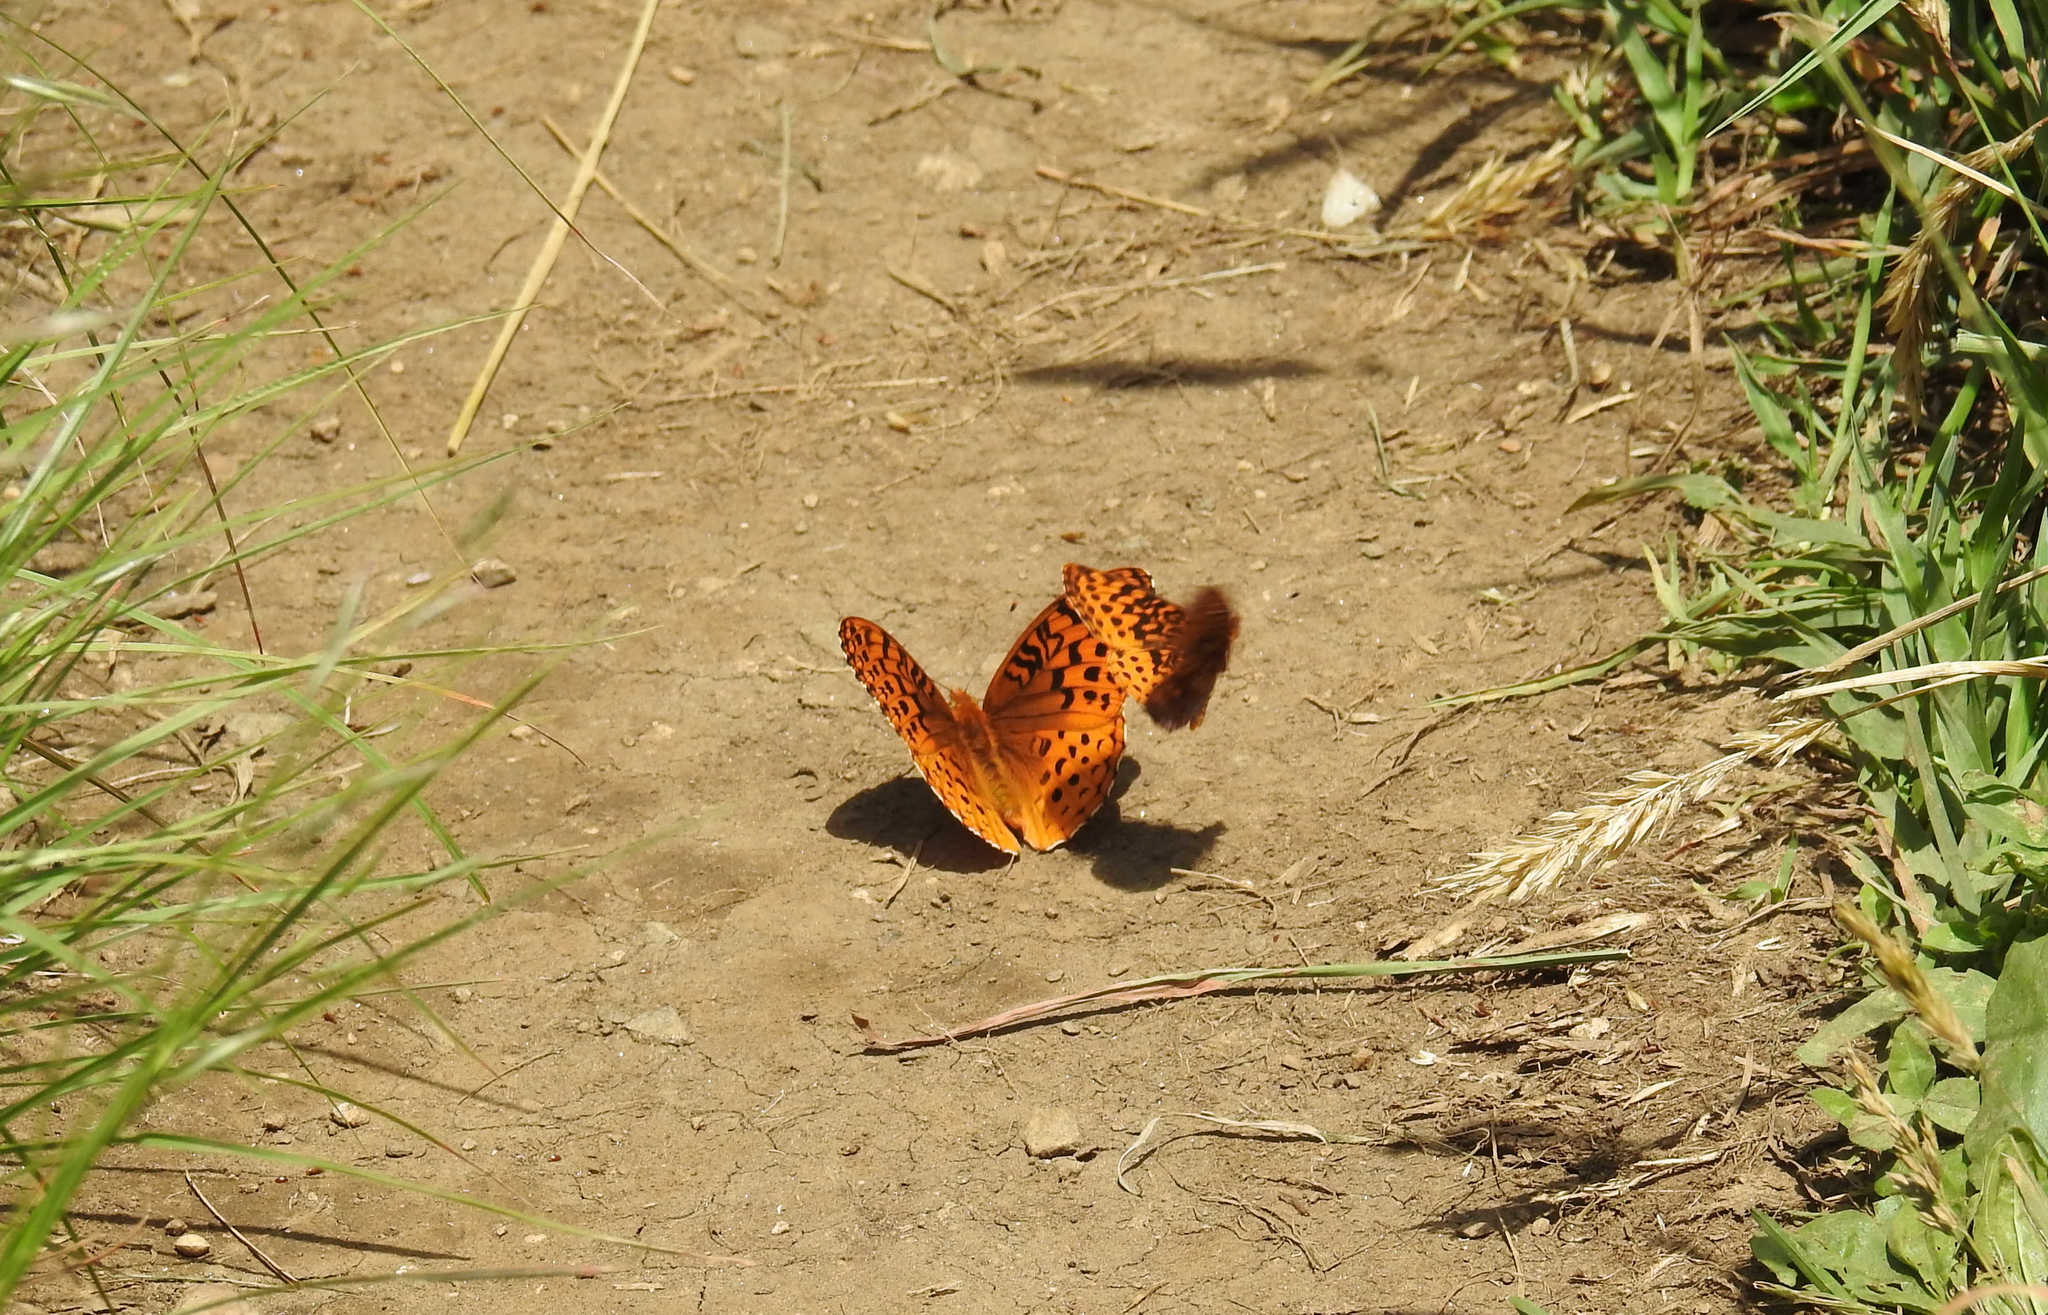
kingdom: Animalia
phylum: Arthropoda
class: Insecta
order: Lepidoptera
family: Nymphalidae
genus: Clossiana
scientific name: Clossiana toddi
